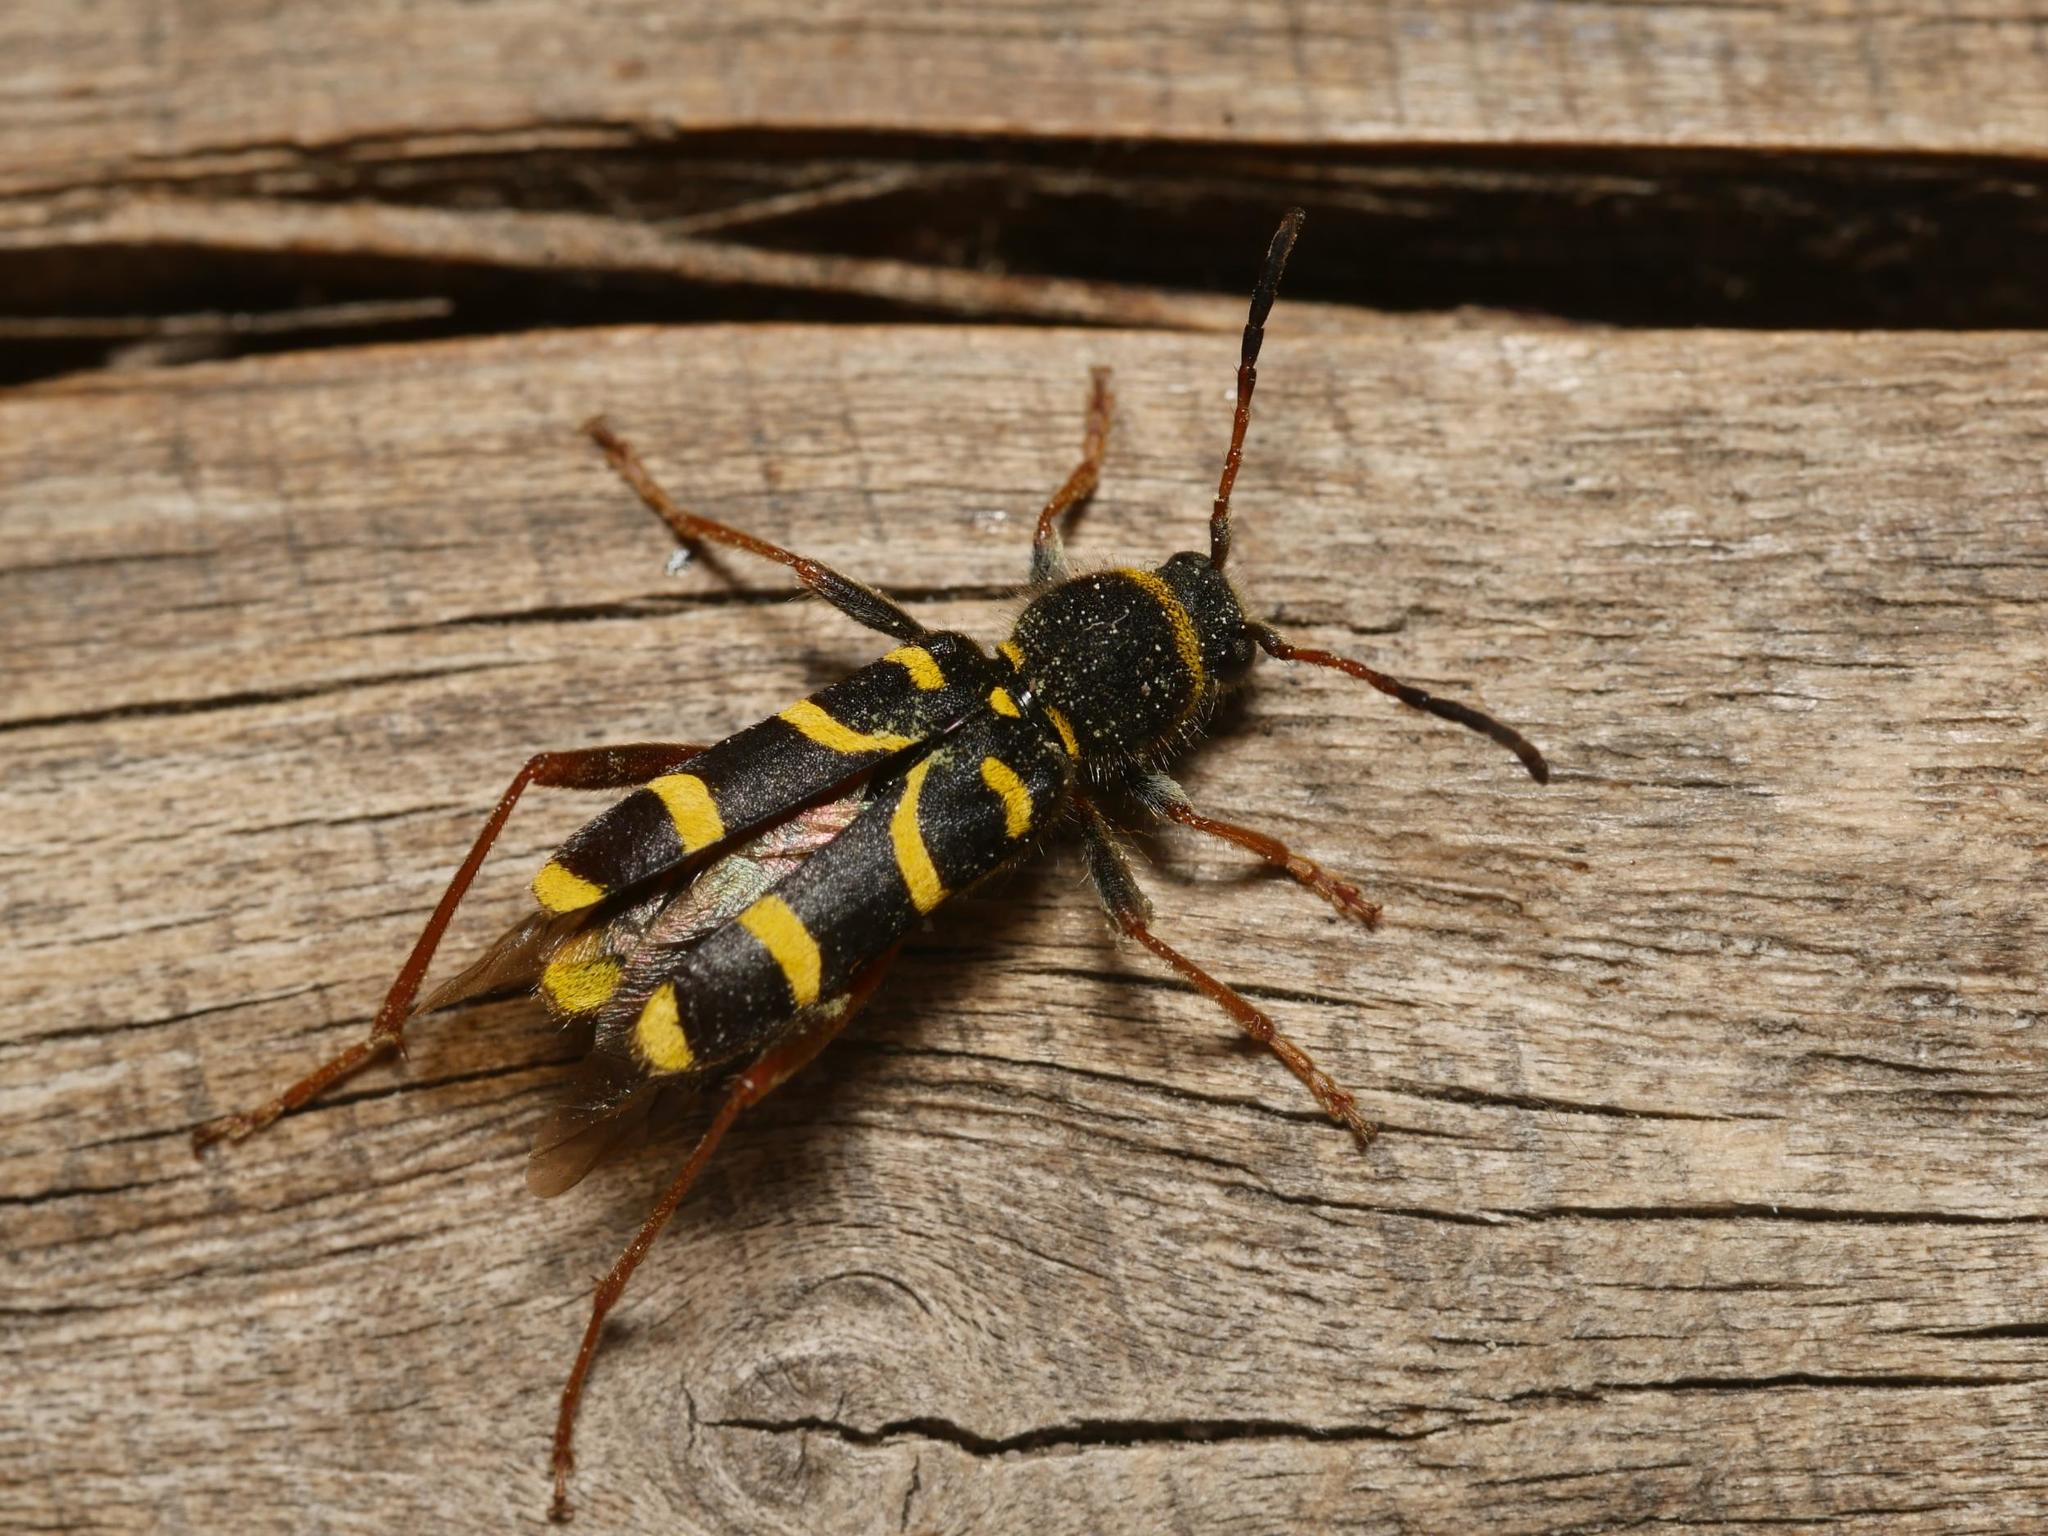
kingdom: Animalia
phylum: Arthropoda
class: Insecta
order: Coleoptera
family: Cerambycidae
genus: Clytus
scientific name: Clytus arietis
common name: Wasp beetle
